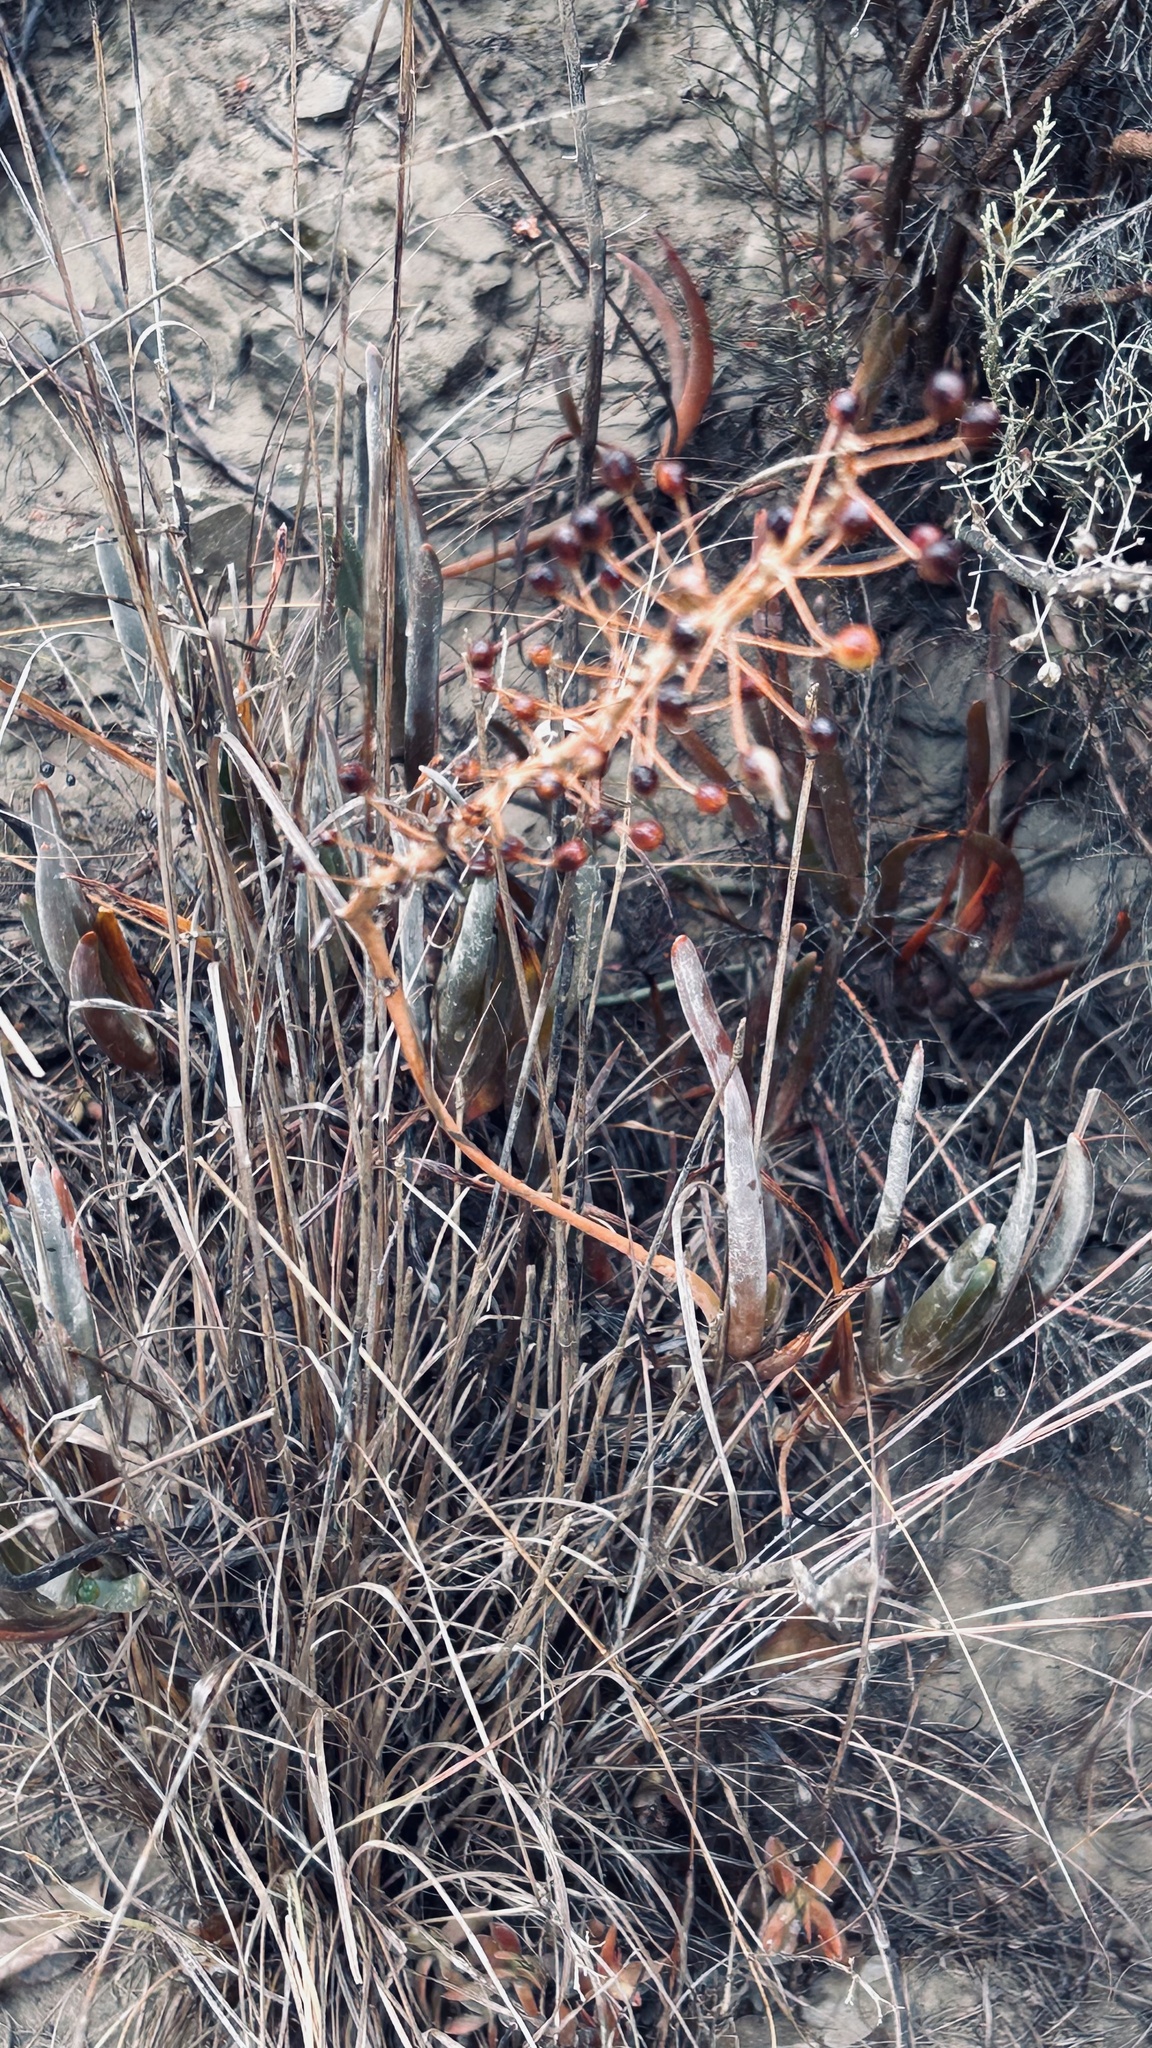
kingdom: Plantae
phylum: Tracheophyta
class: Liliopsida
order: Asparagales
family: Asphodelaceae
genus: Bulbine
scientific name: Bulbine frutescens
